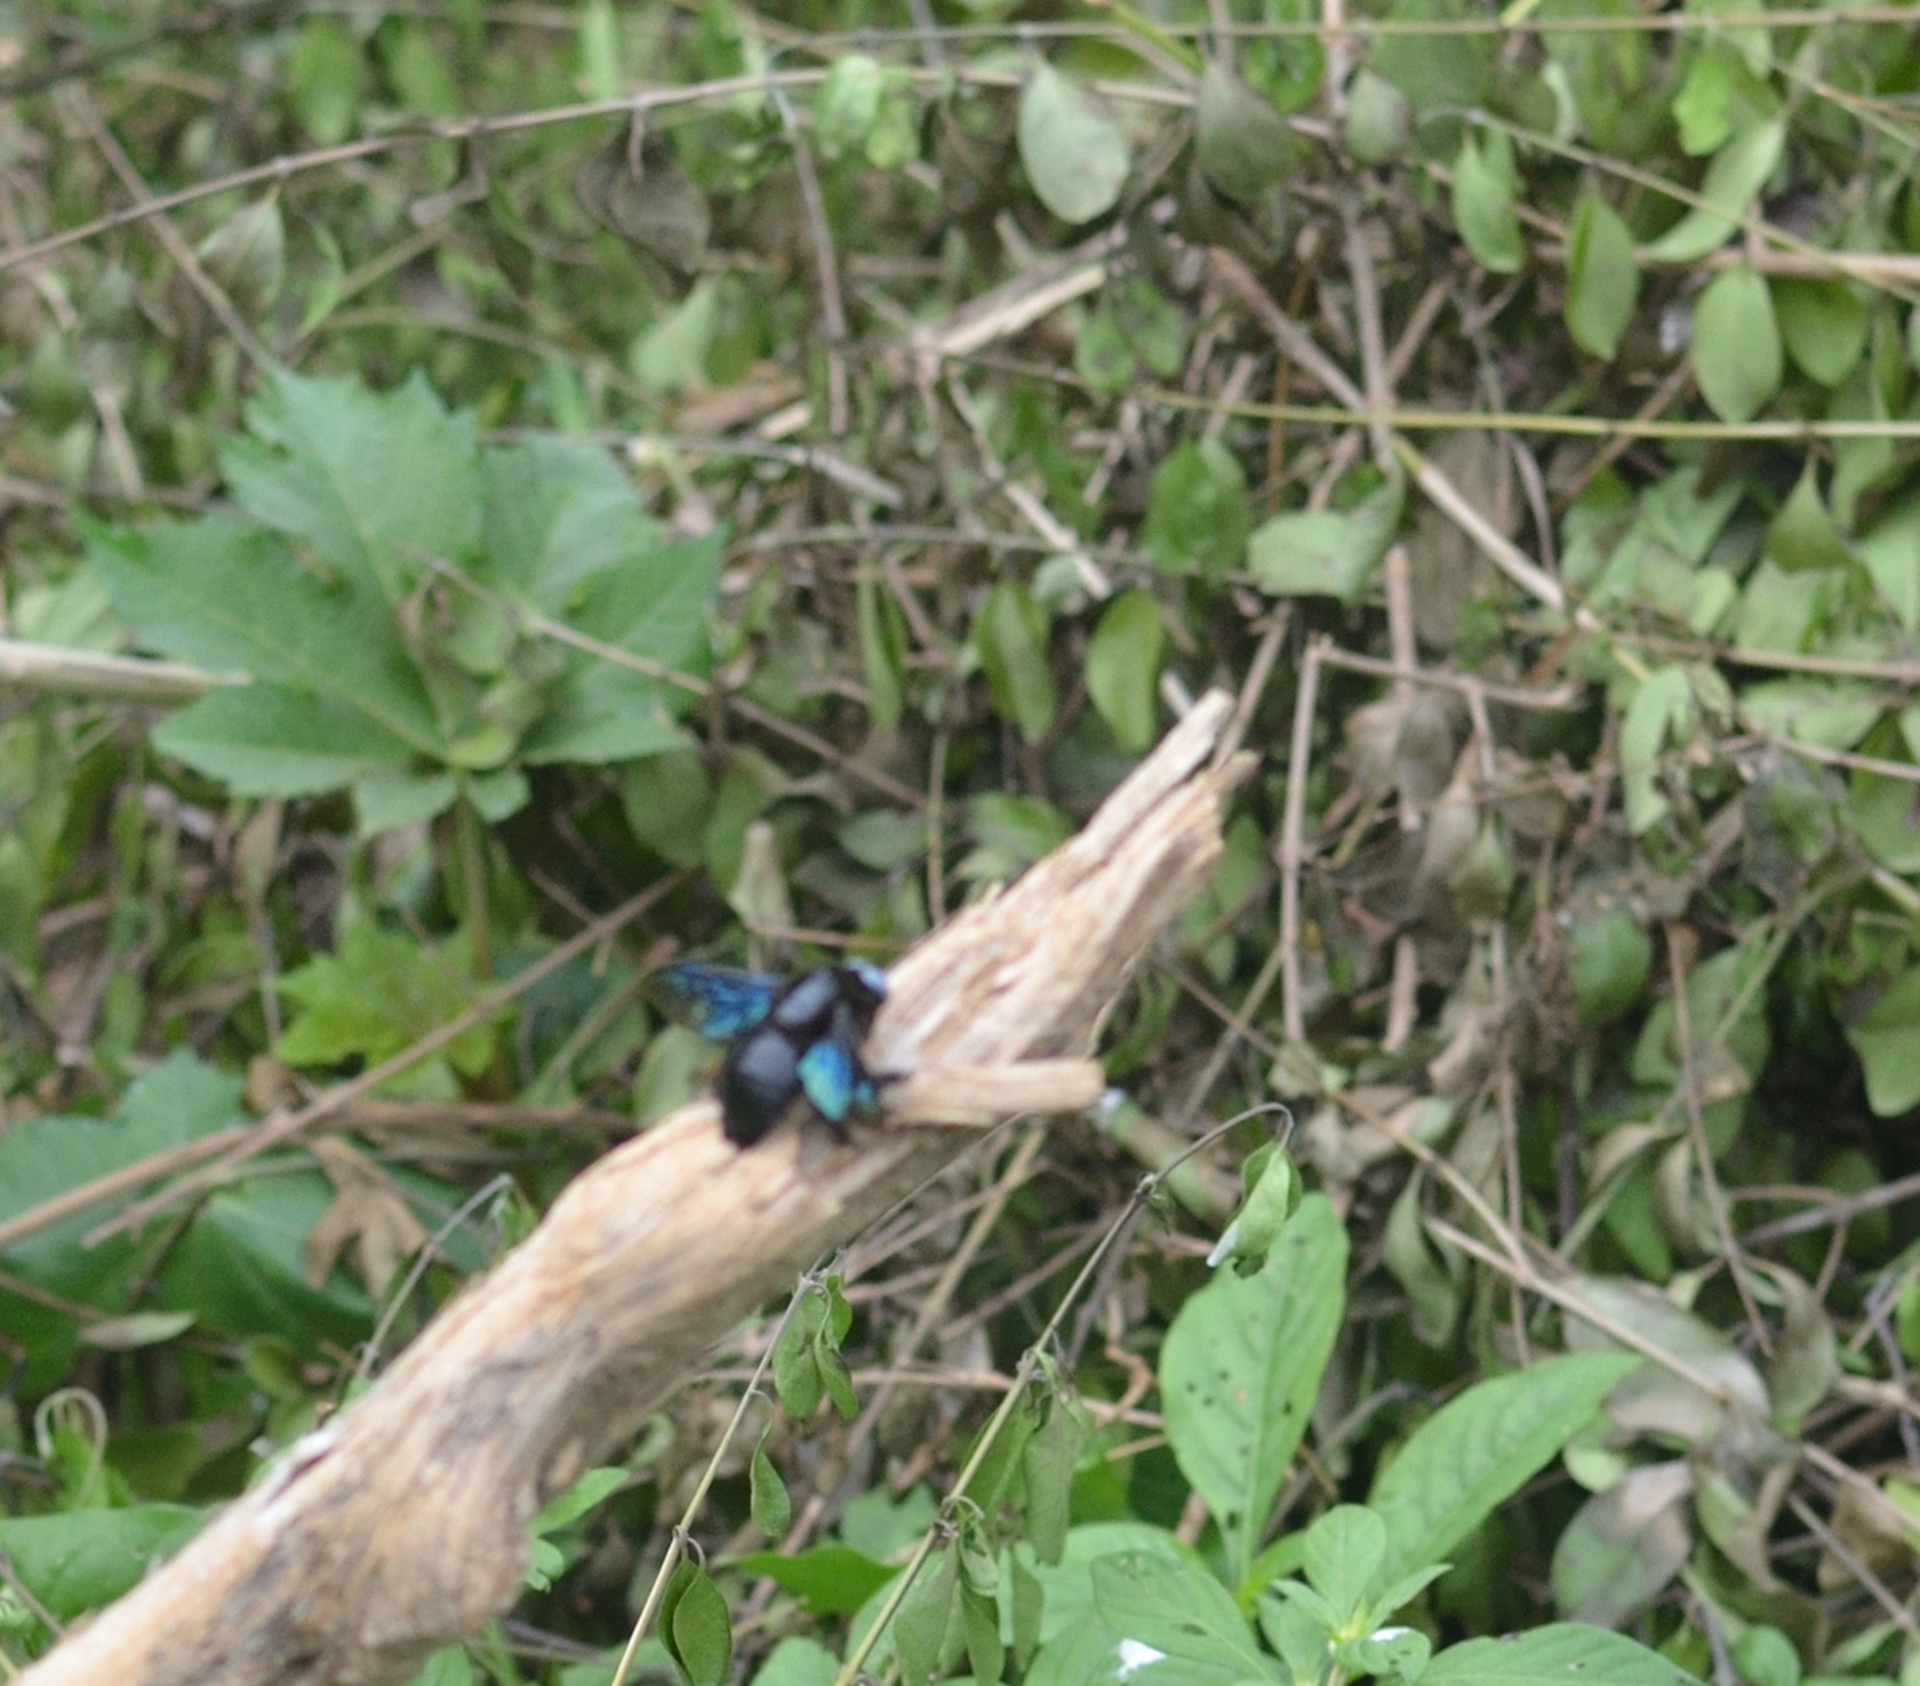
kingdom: Animalia
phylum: Arthropoda
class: Insecta
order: Hymenoptera
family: Apidae
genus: Xylocopa
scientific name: Xylocopa tenuiscapa
